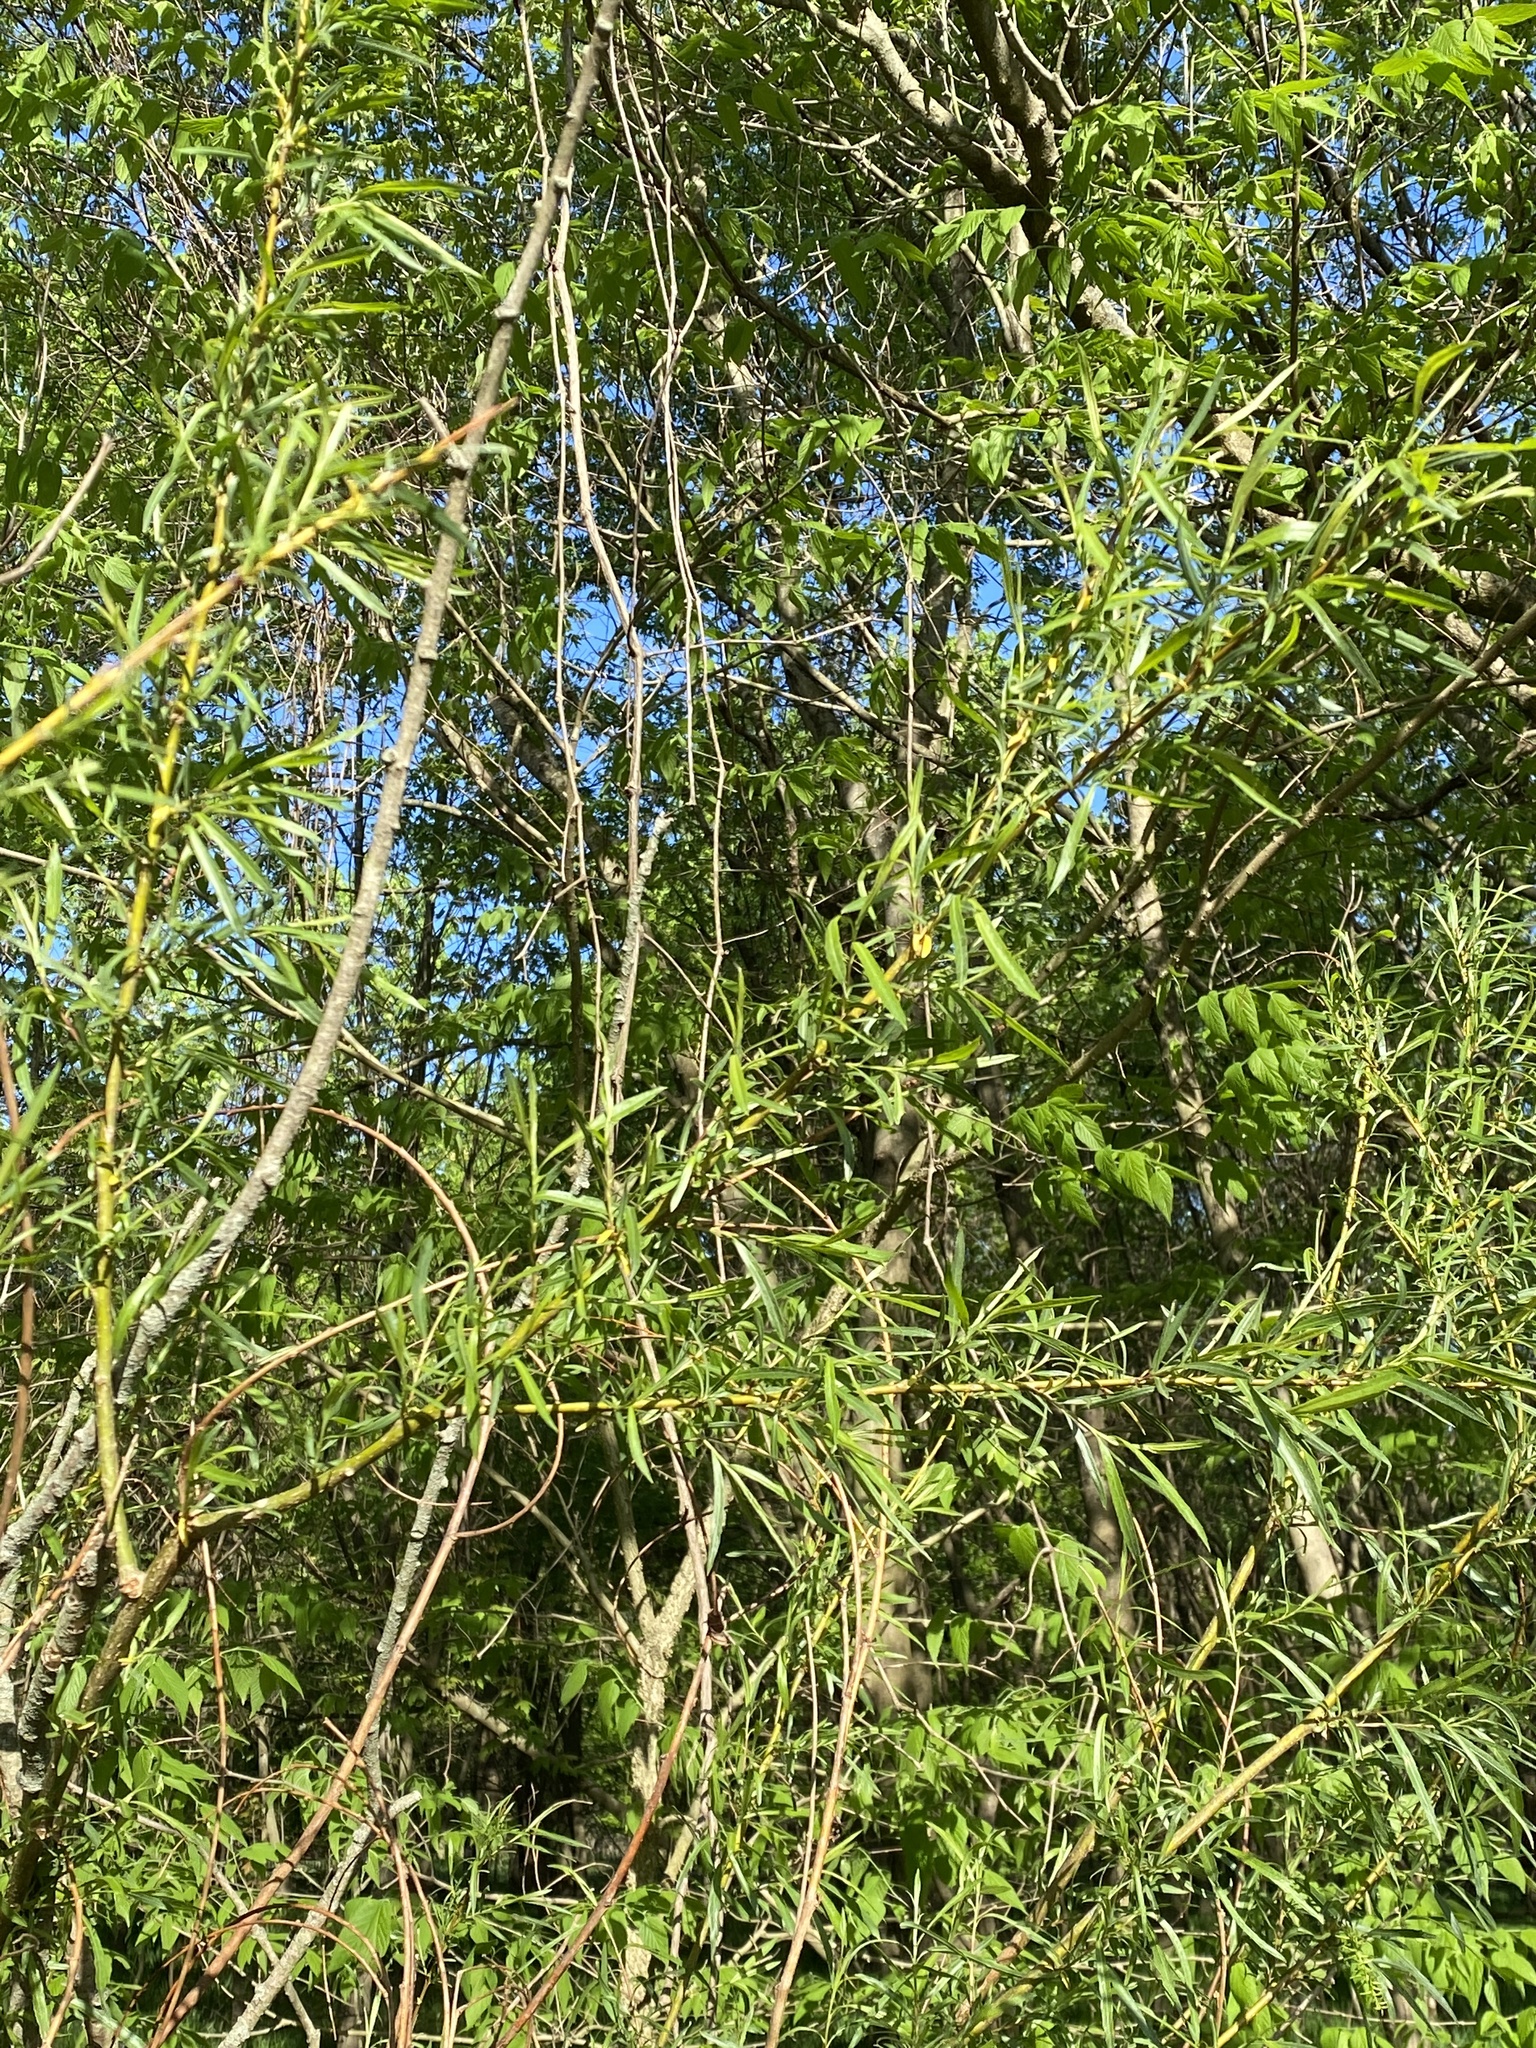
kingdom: Plantae
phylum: Tracheophyta
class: Magnoliopsida
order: Malpighiales
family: Salicaceae
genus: Salix
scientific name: Salix interior
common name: Sandbar willow
